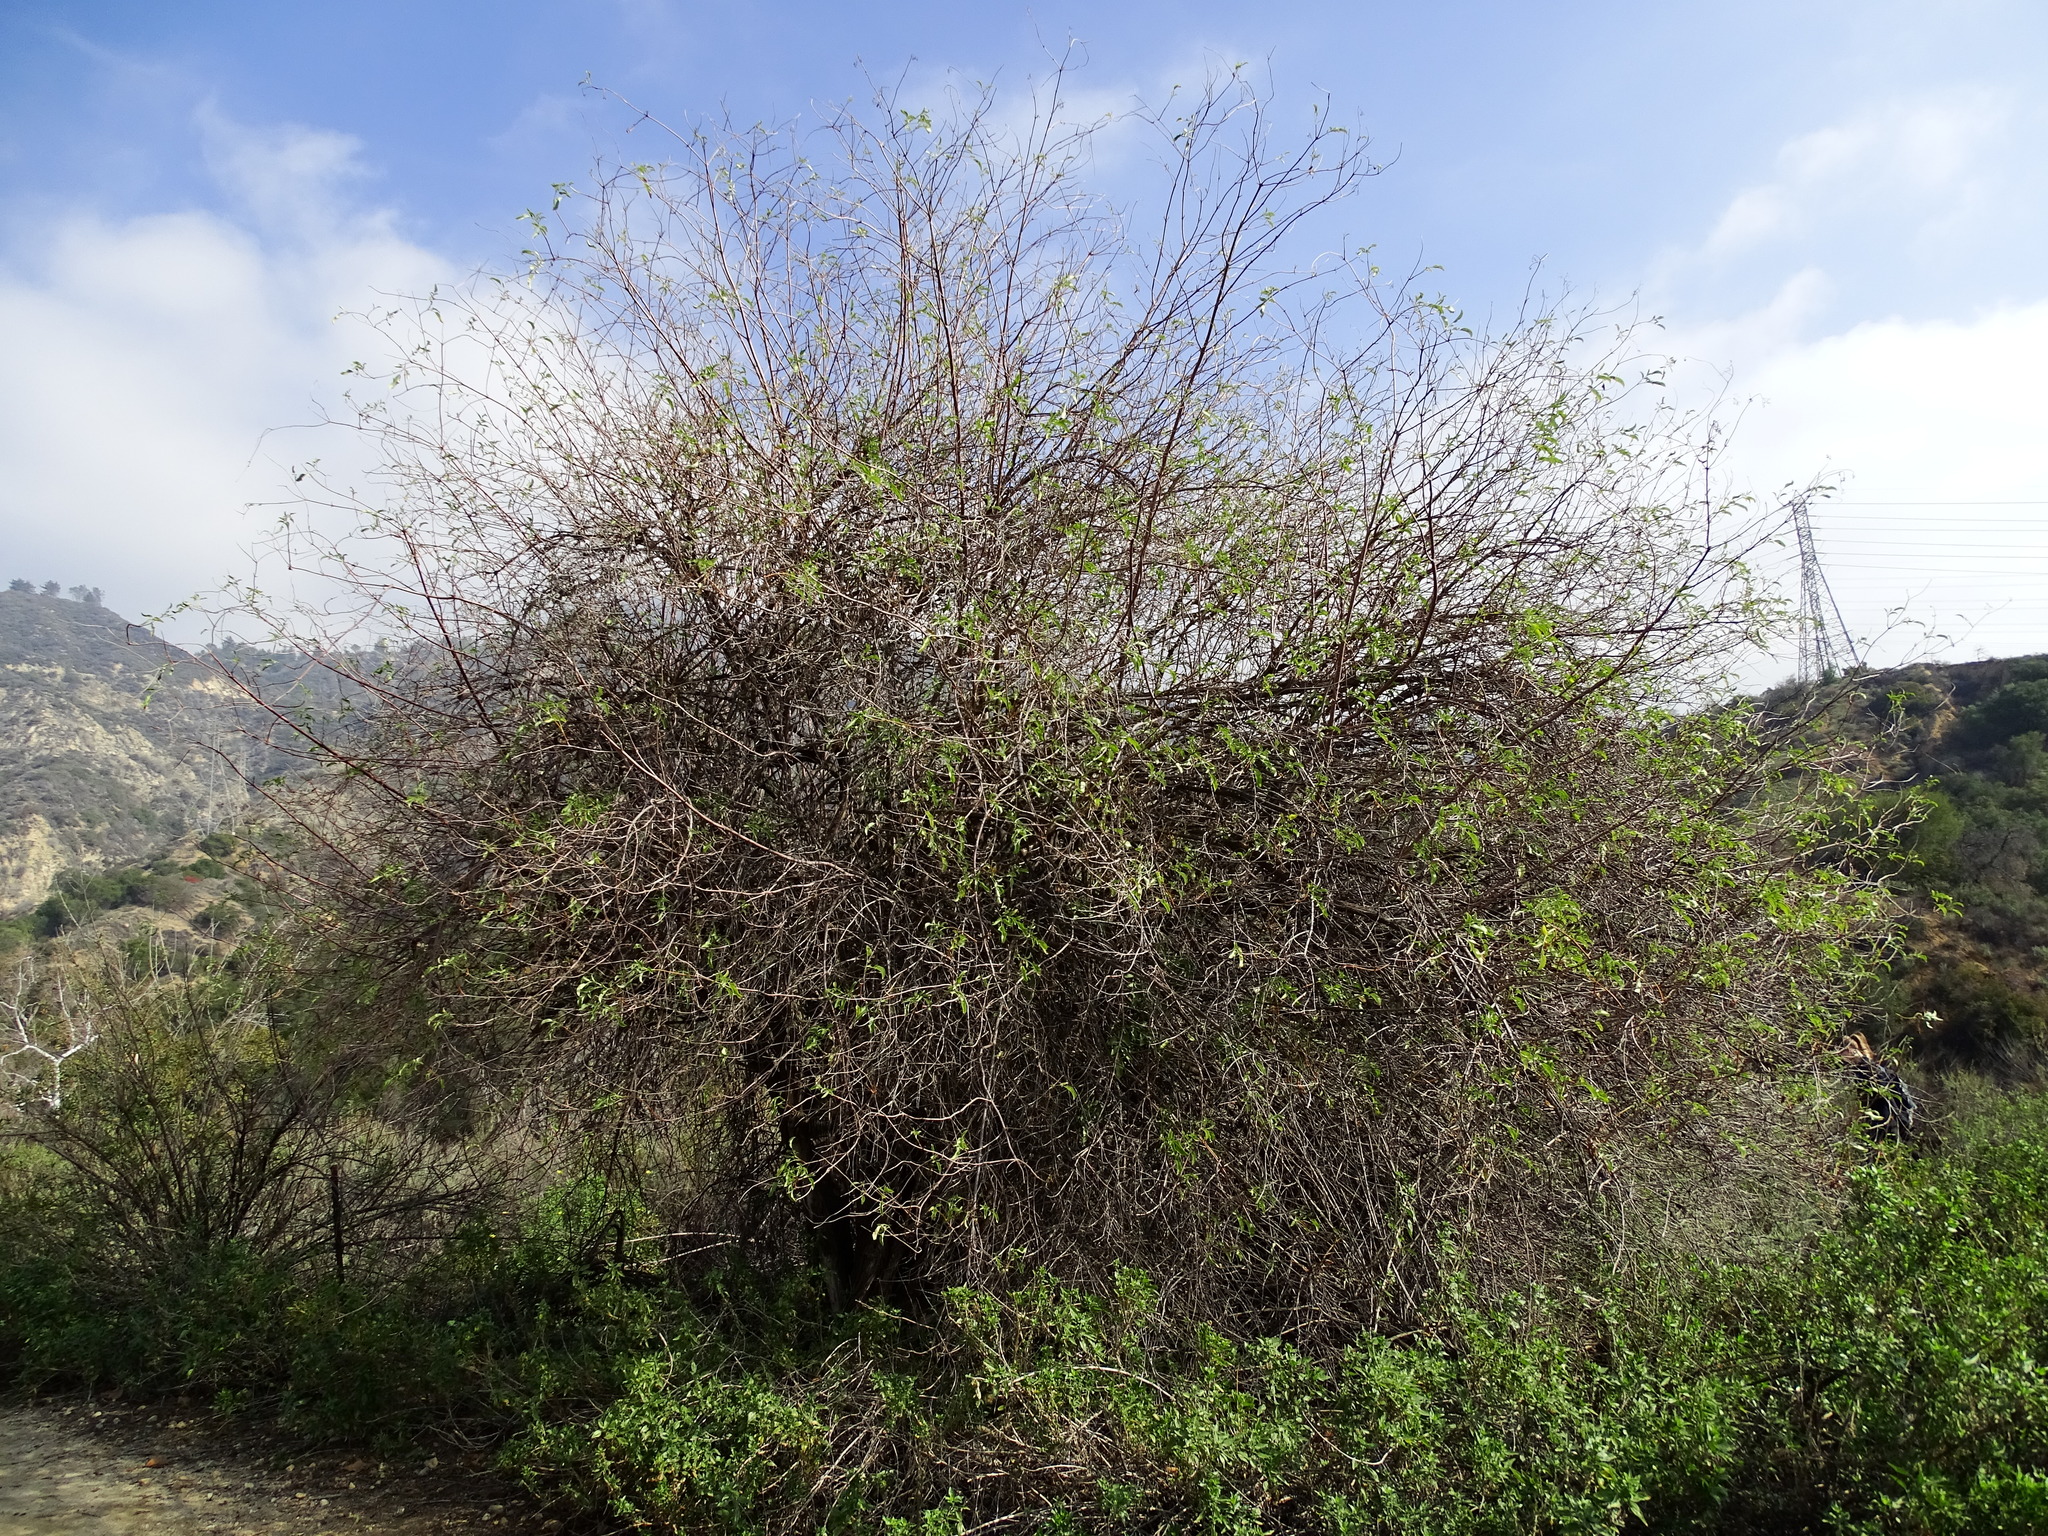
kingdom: Plantae
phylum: Tracheophyta
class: Magnoliopsida
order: Dipsacales
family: Viburnaceae
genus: Sambucus
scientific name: Sambucus cerulea
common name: Blue elder
